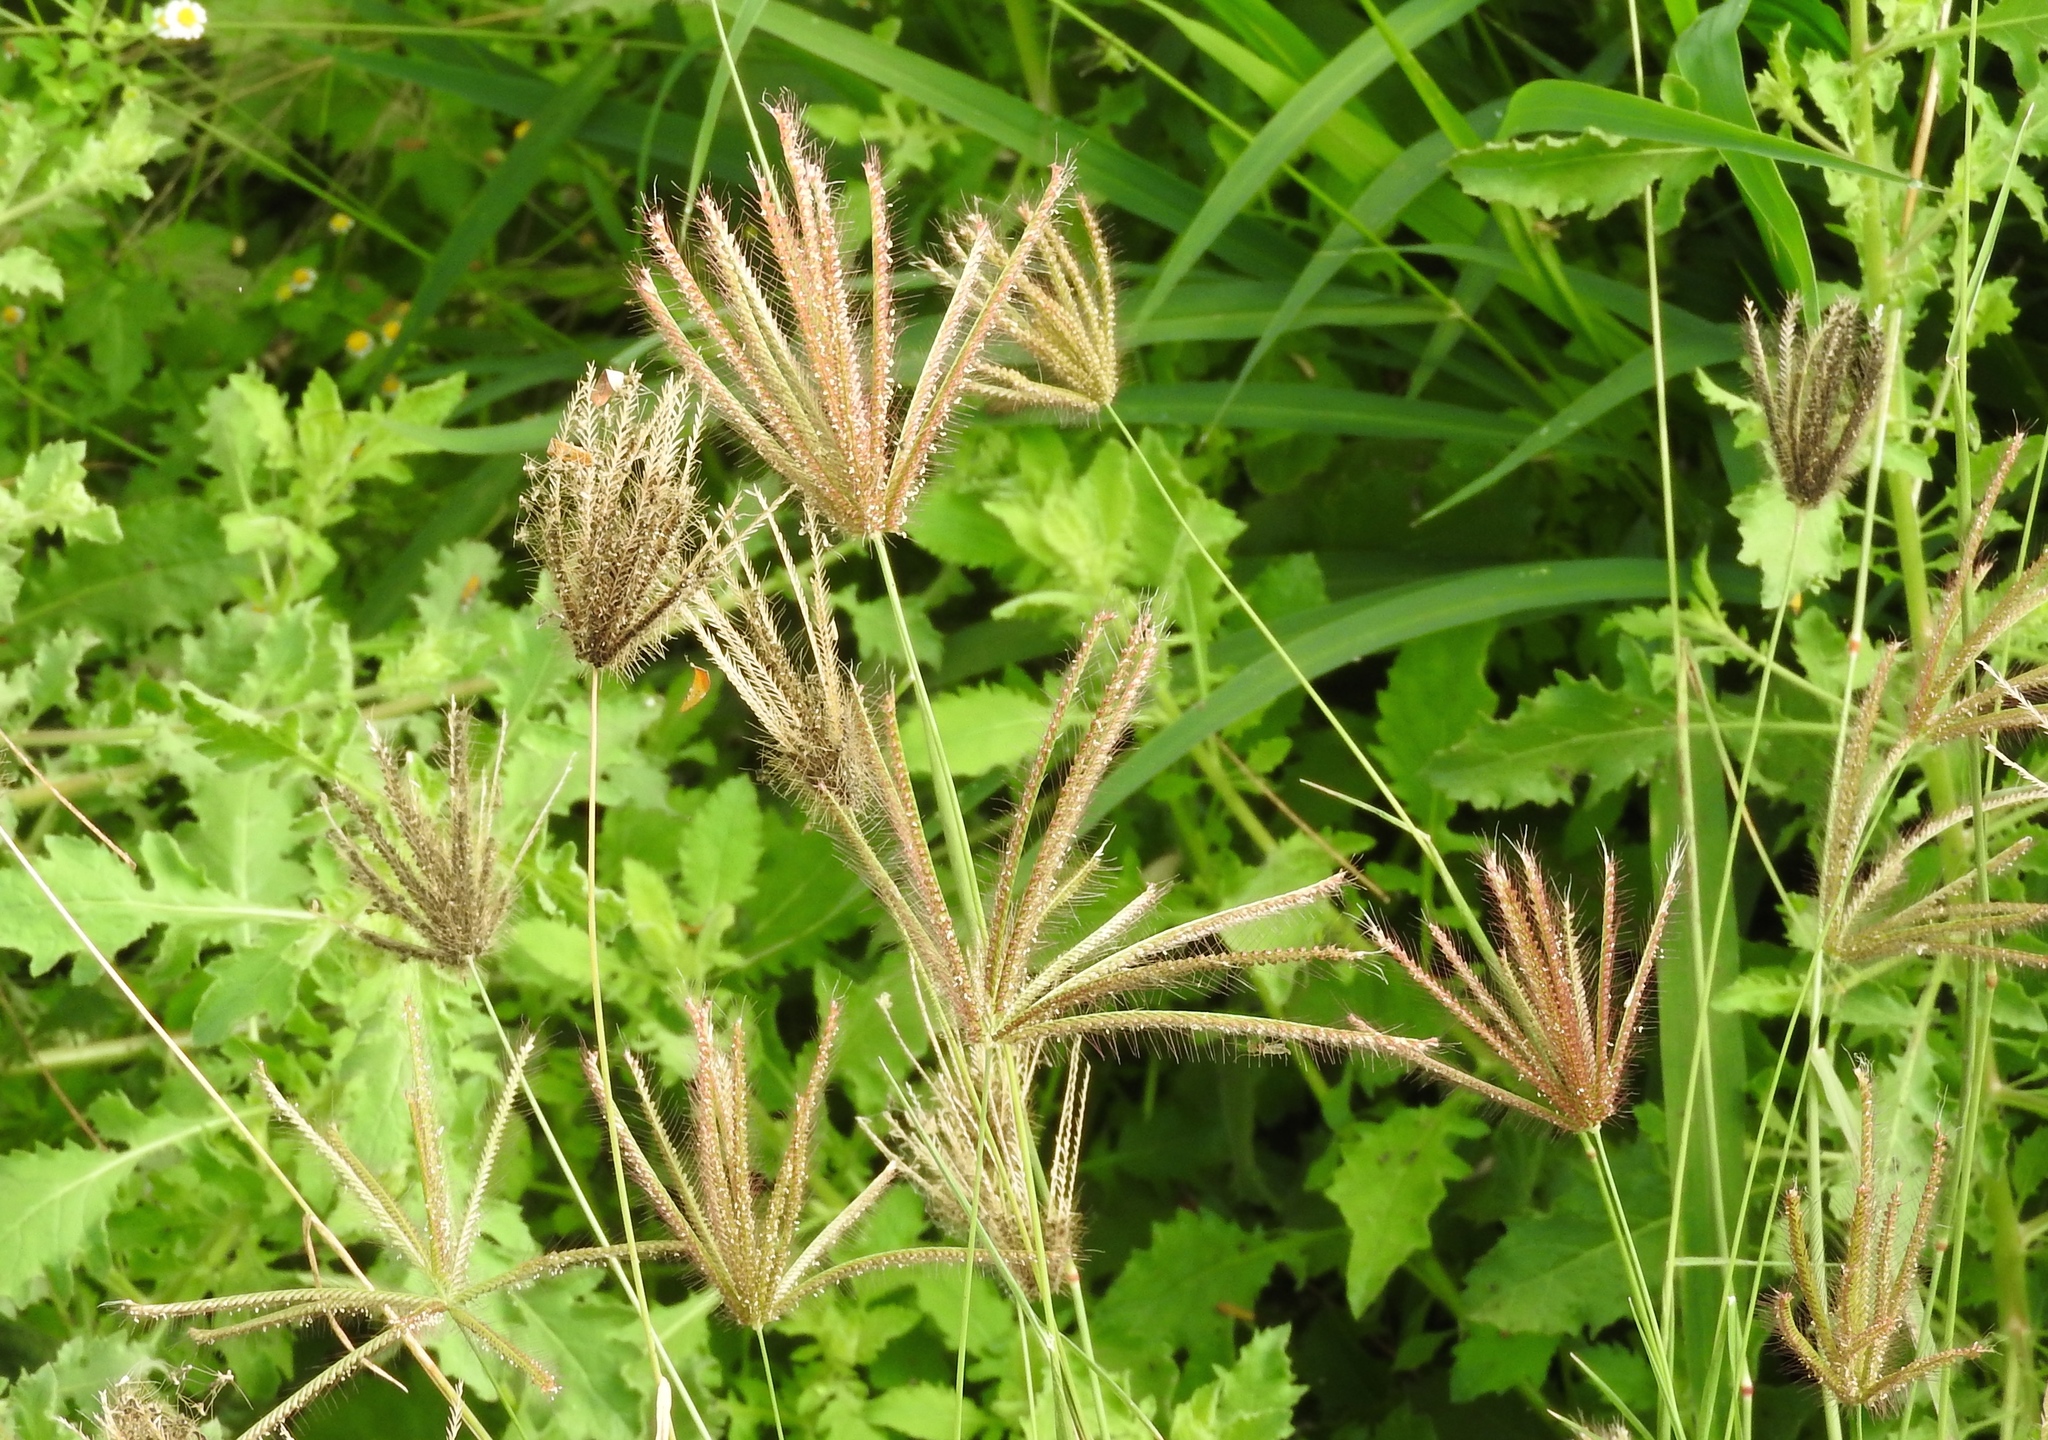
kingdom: Plantae
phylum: Tracheophyta
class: Liliopsida
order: Poales
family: Poaceae
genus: Chloris
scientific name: Chloris virgata
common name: Feathery rhodes-grass
